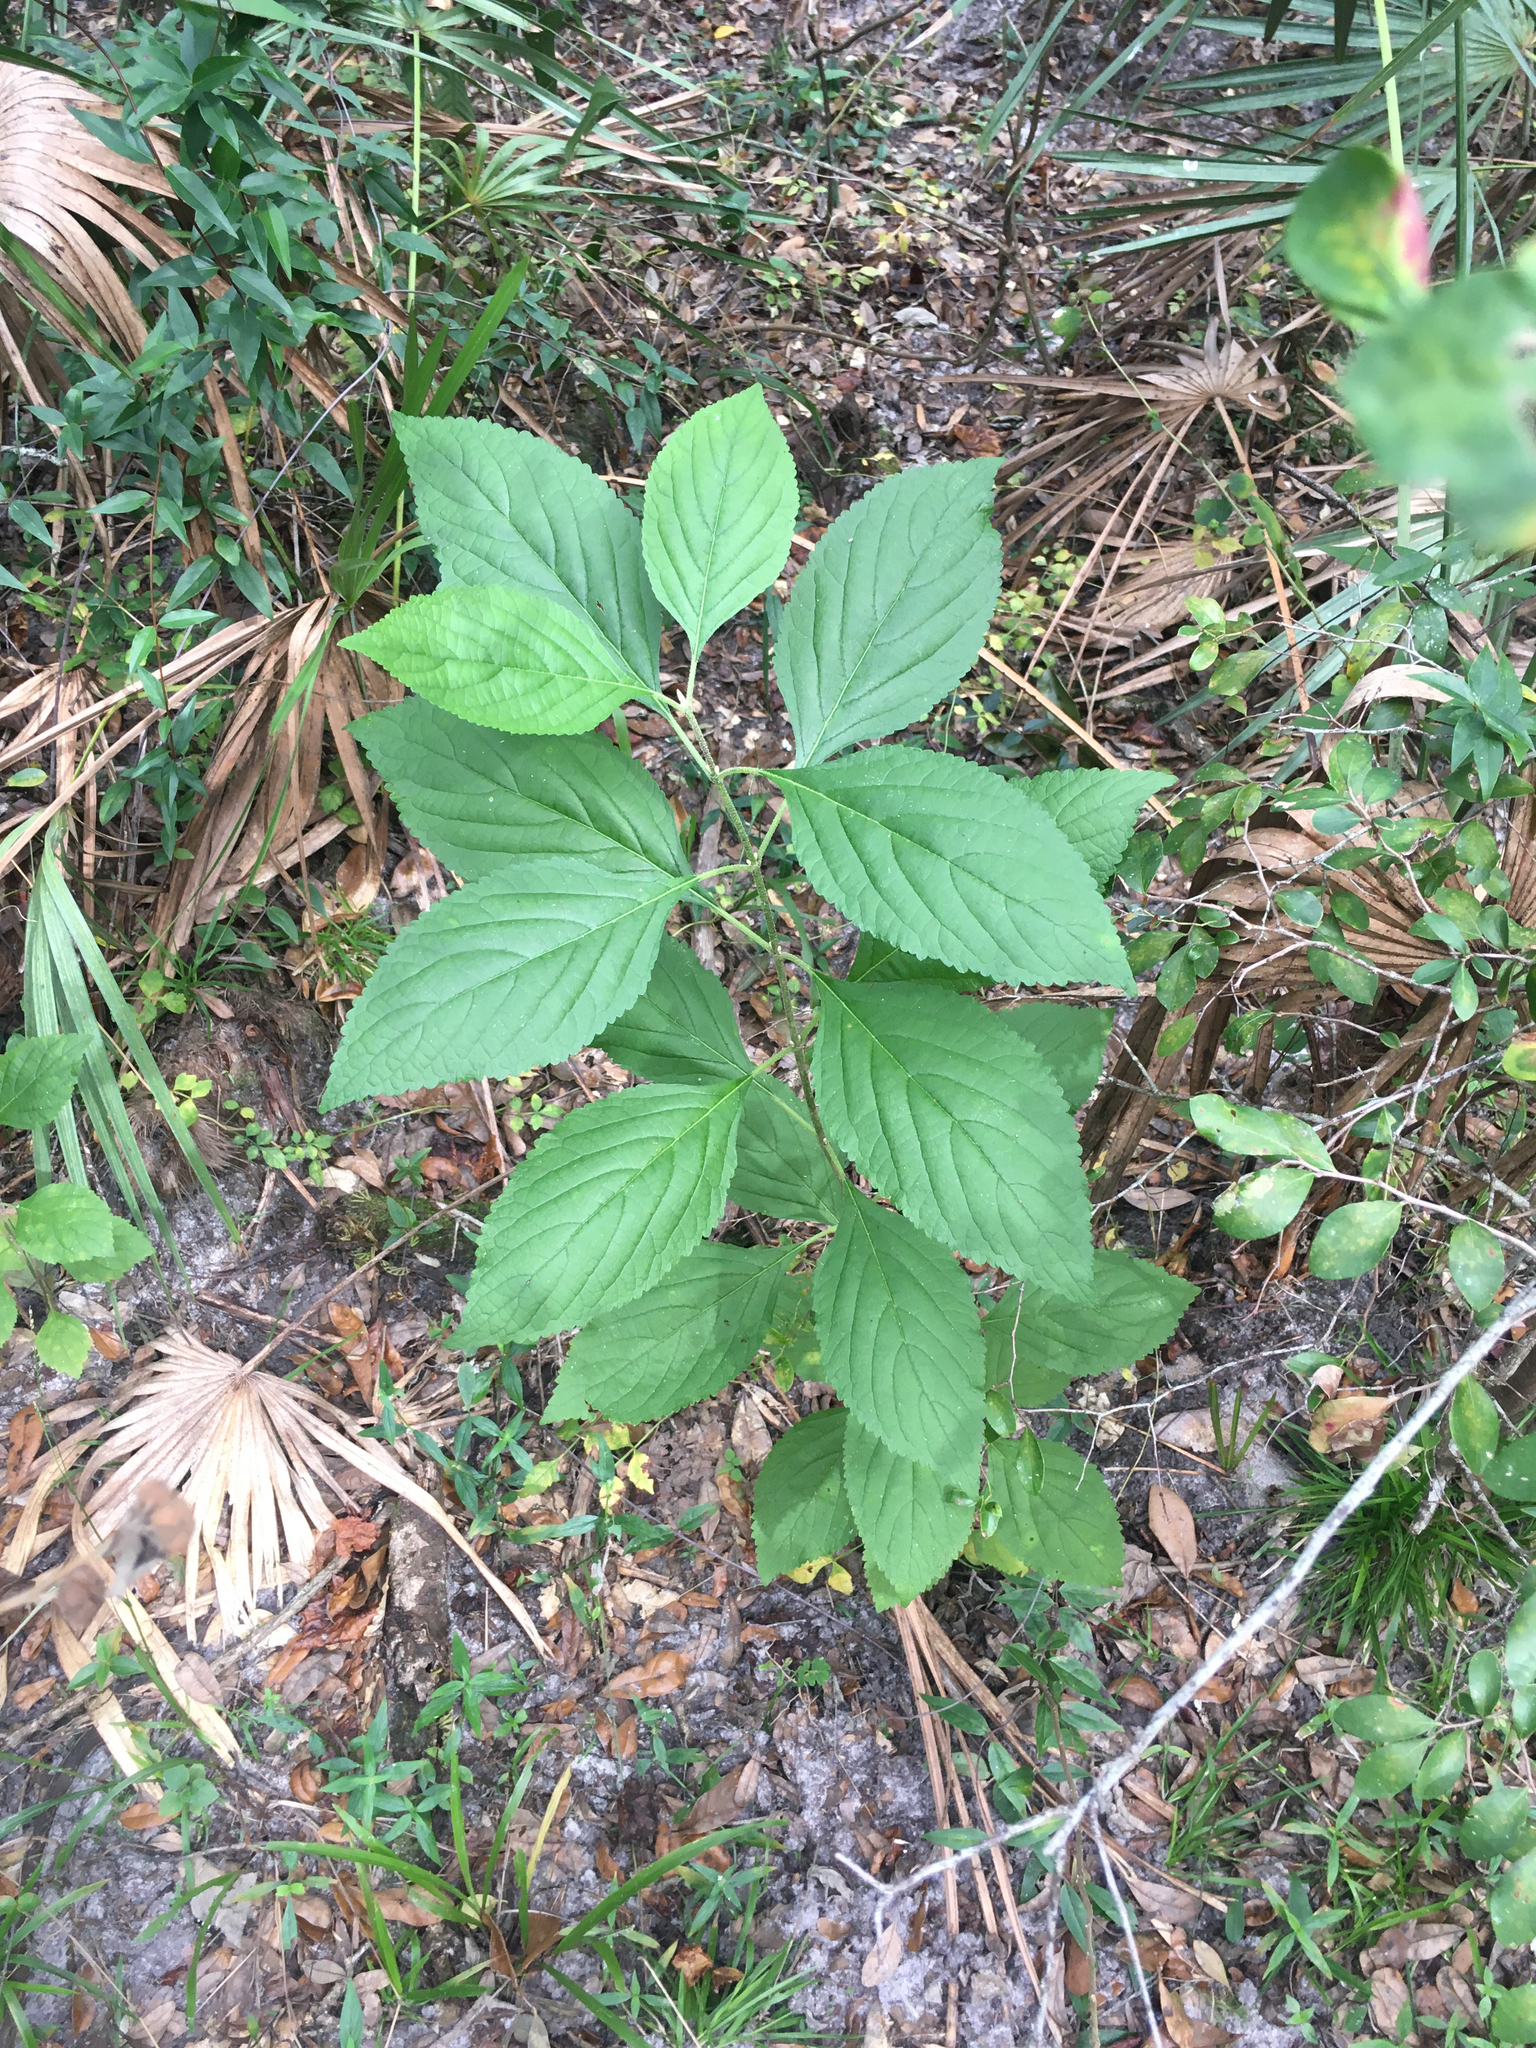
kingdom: Plantae
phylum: Tracheophyta
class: Magnoliopsida
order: Lamiales
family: Lamiaceae
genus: Callicarpa
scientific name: Callicarpa americana
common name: American beautyberry
